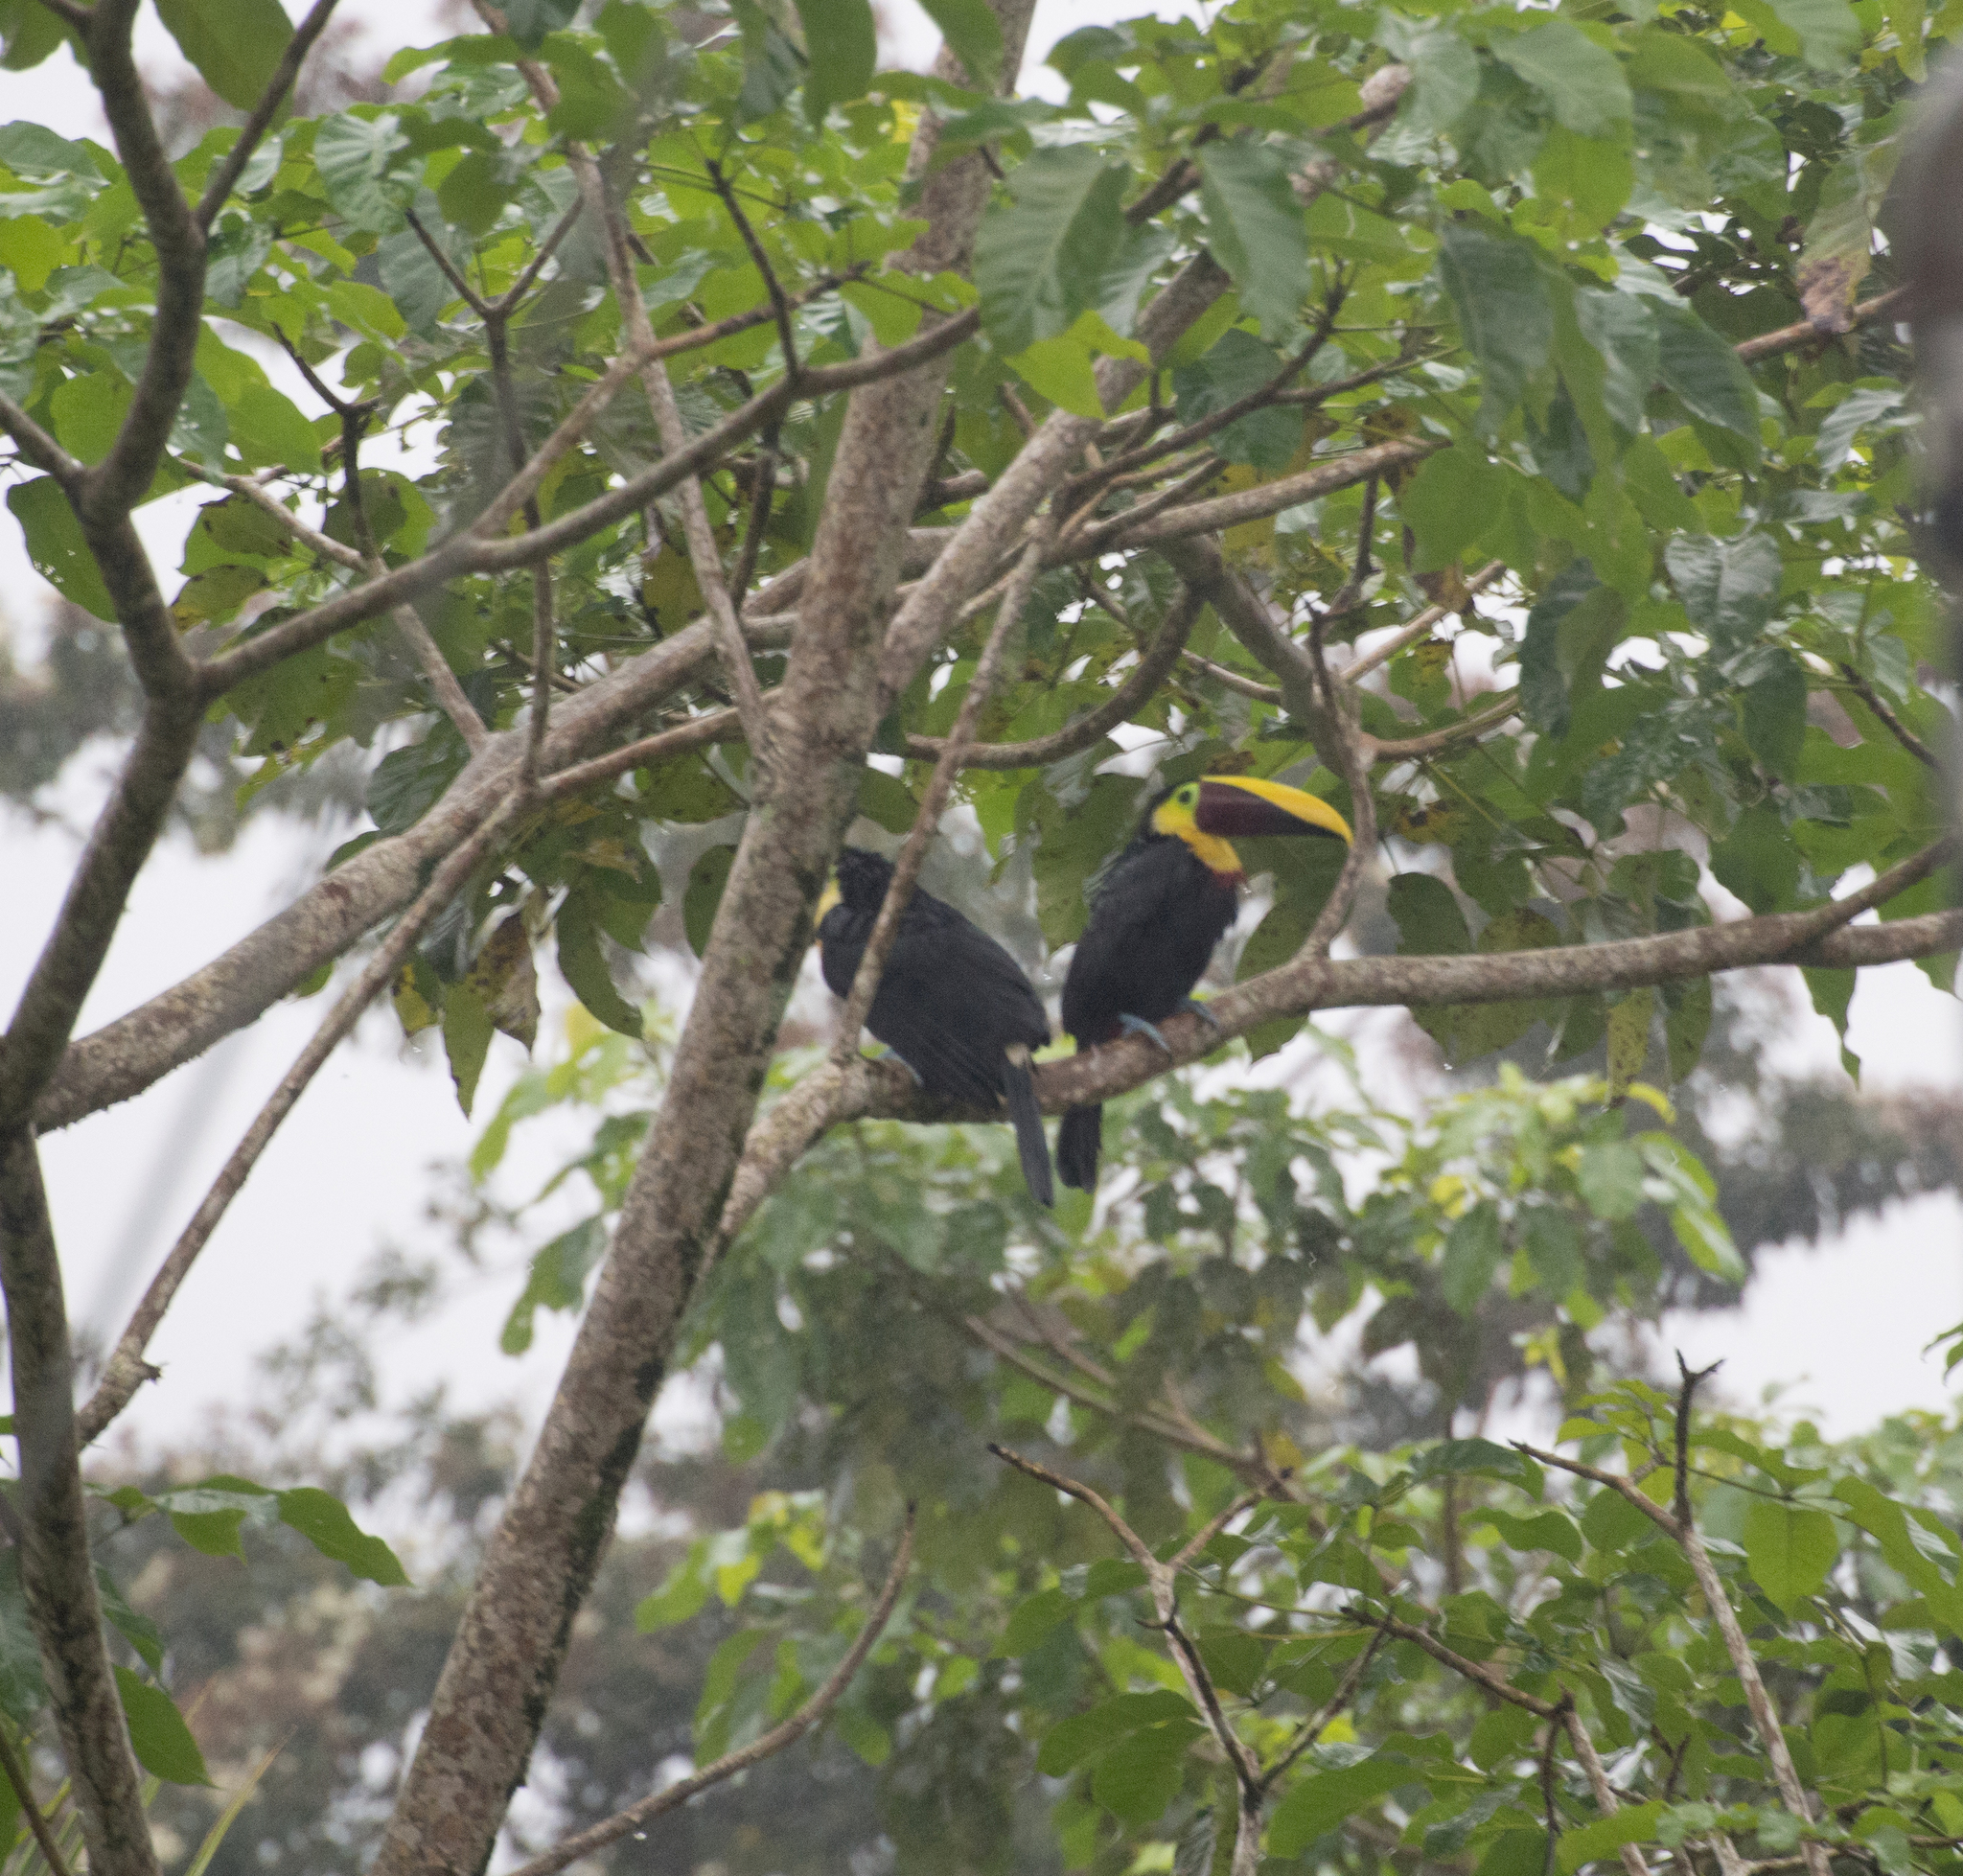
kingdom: Animalia
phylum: Chordata
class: Aves
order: Piciformes
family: Ramphastidae
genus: Ramphastos
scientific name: Ramphastos ambiguus
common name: Yellow-throated toucan
